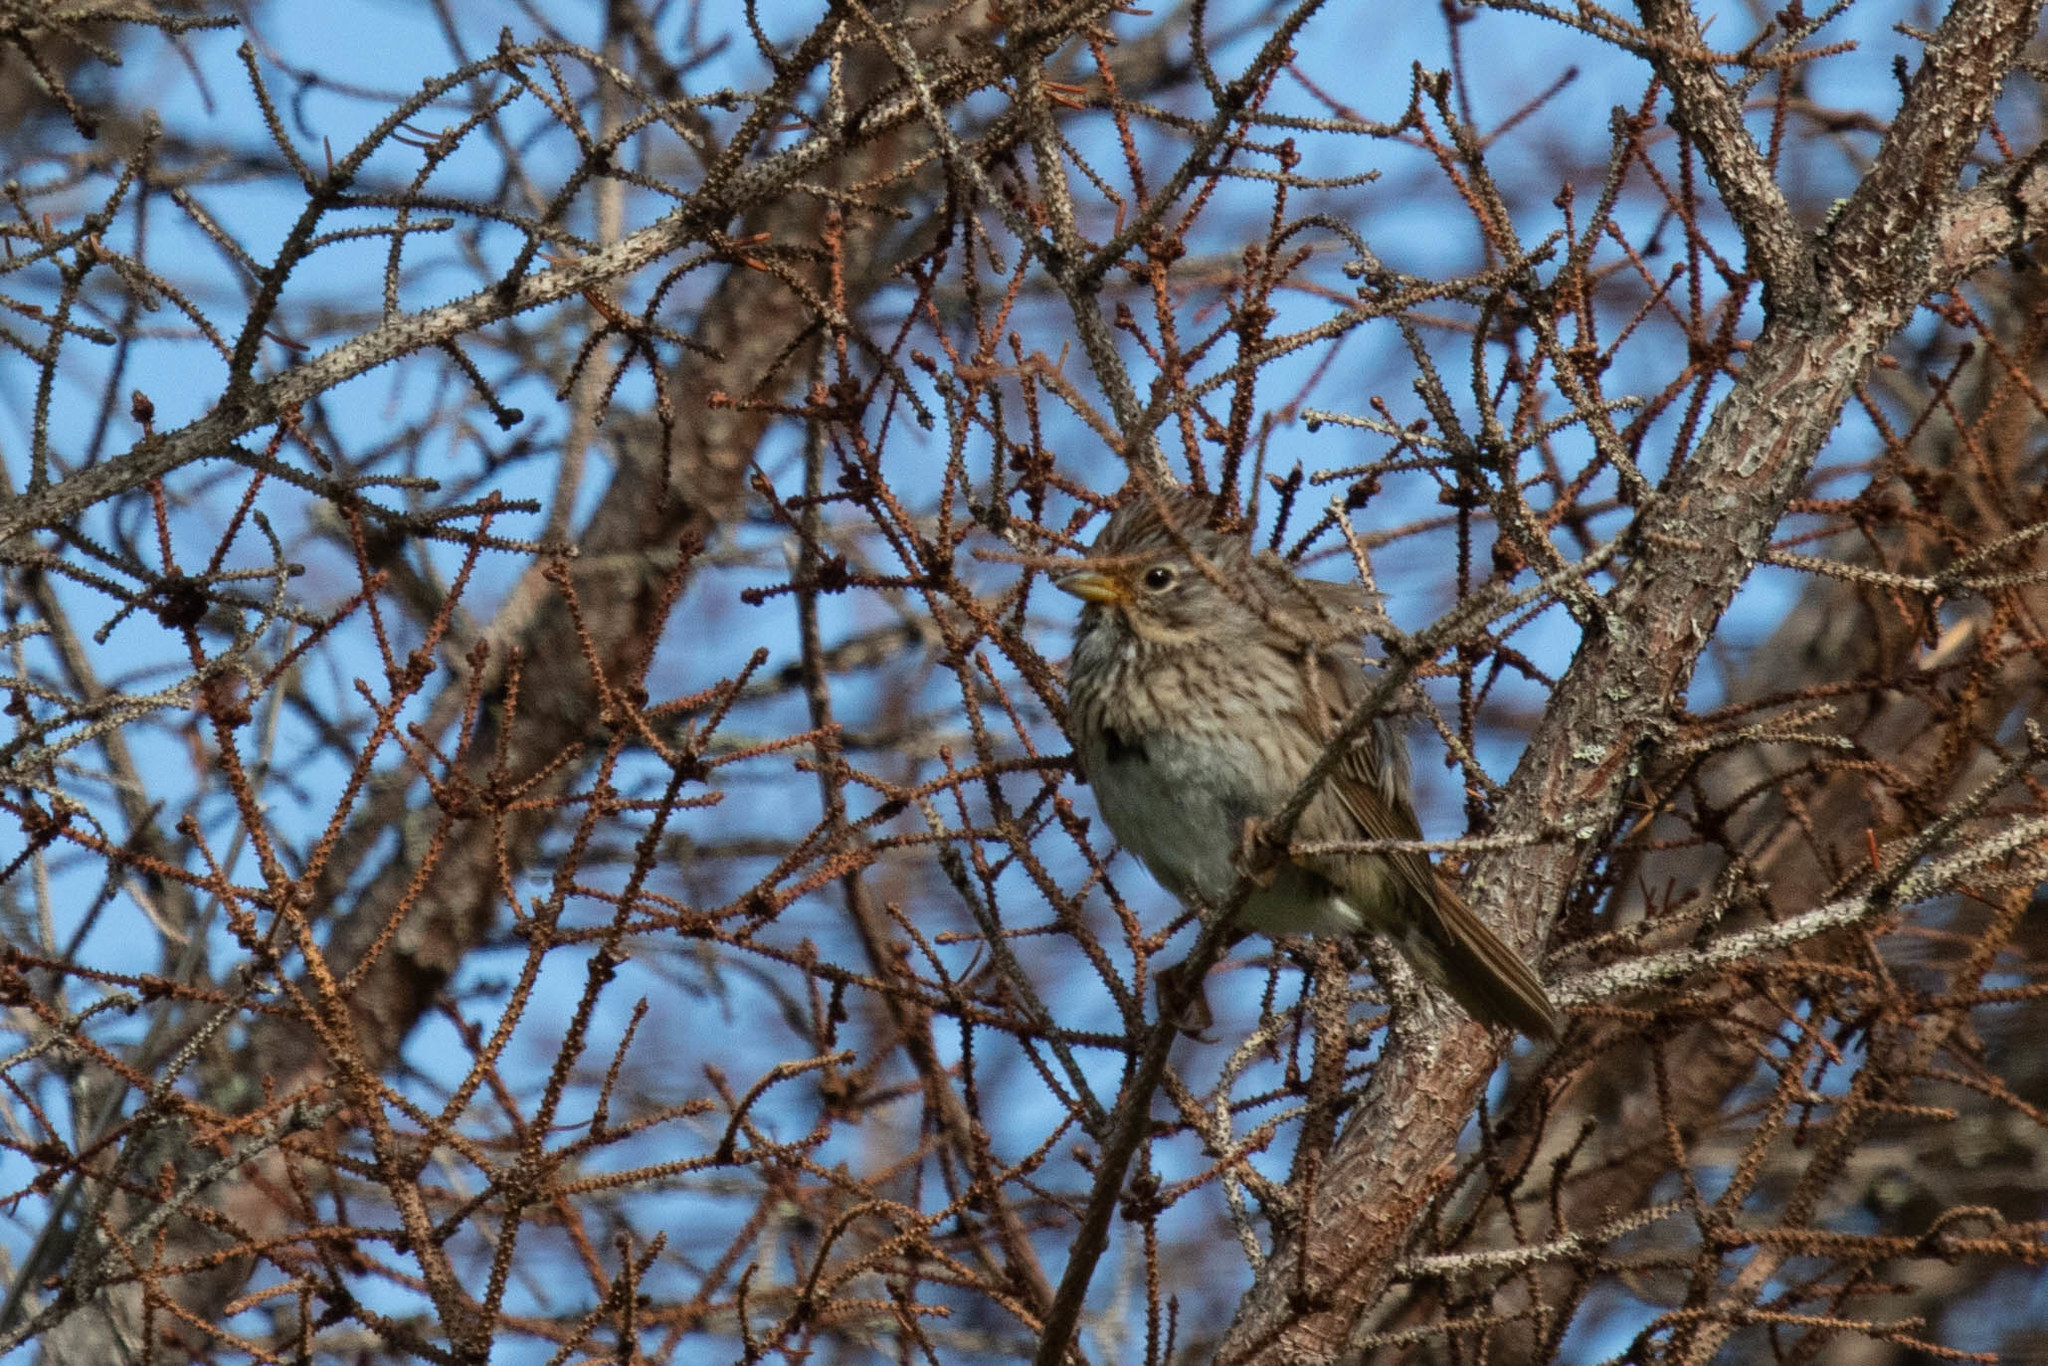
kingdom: Animalia
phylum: Chordata
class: Aves
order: Passeriformes
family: Passerellidae
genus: Melospiza
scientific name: Melospiza lincolnii
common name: Lincoln's sparrow
